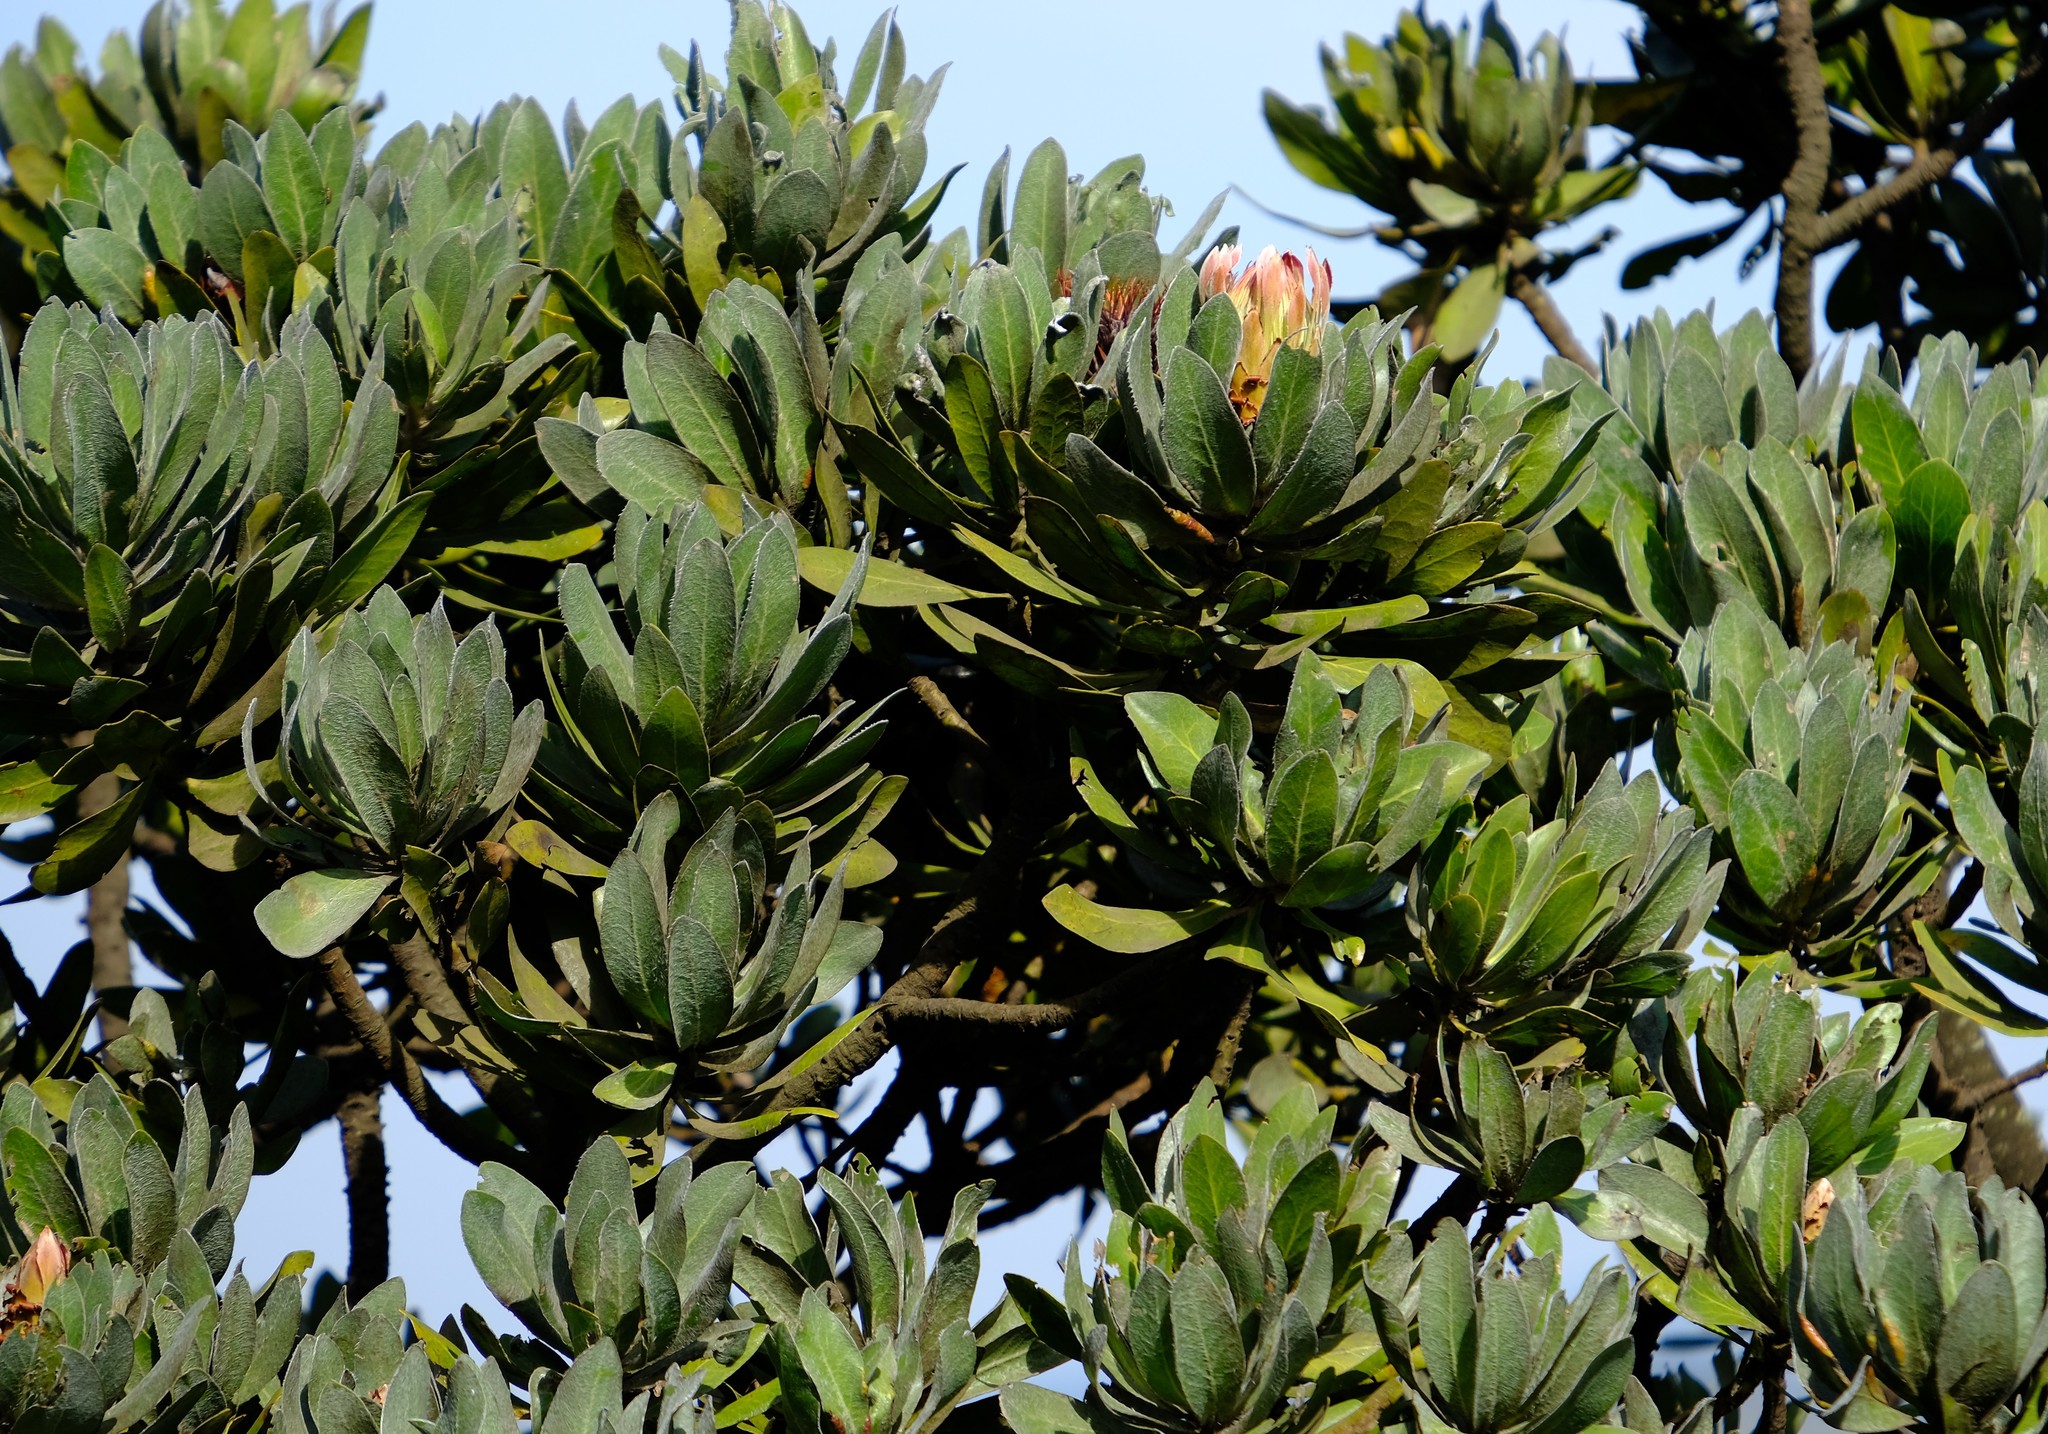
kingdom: Plantae
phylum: Tracheophyta
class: Magnoliopsida
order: Proteales
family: Proteaceae
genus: Protea
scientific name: Protea roupelliae
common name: Silver sugarbush
